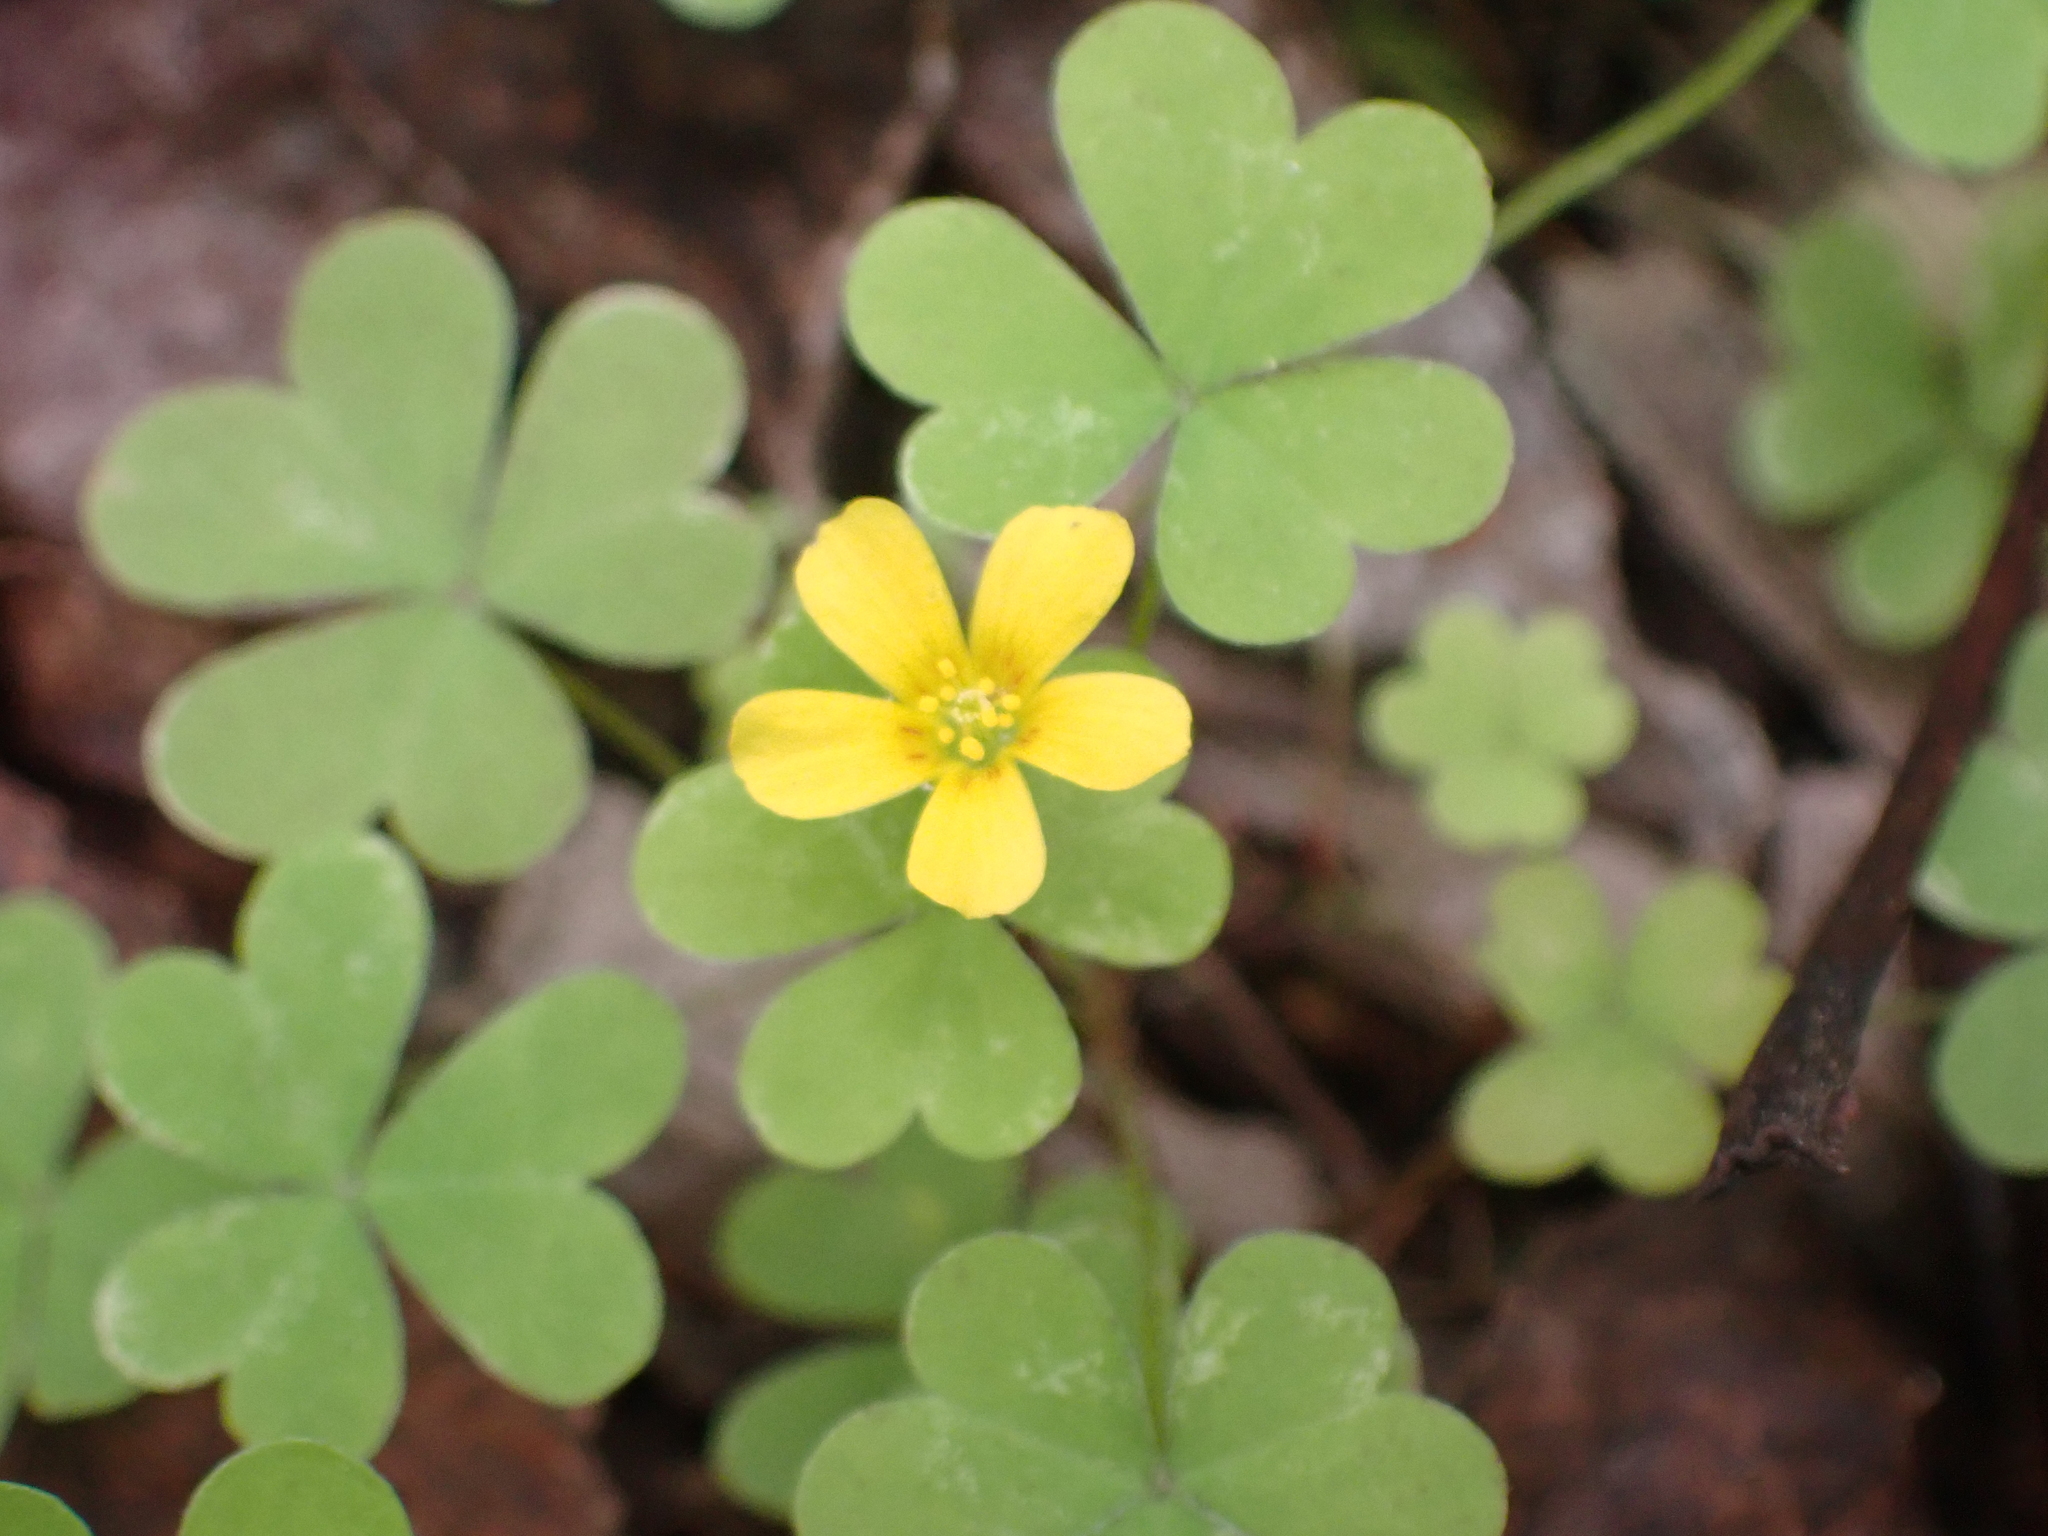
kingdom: Plantae
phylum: Tracheophyta
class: Magnoliopsida
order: Oxalidales
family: Oxalidaceae
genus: Oxalis
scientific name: Oxalis corniculata
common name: Procumbent yellow-sorrel
